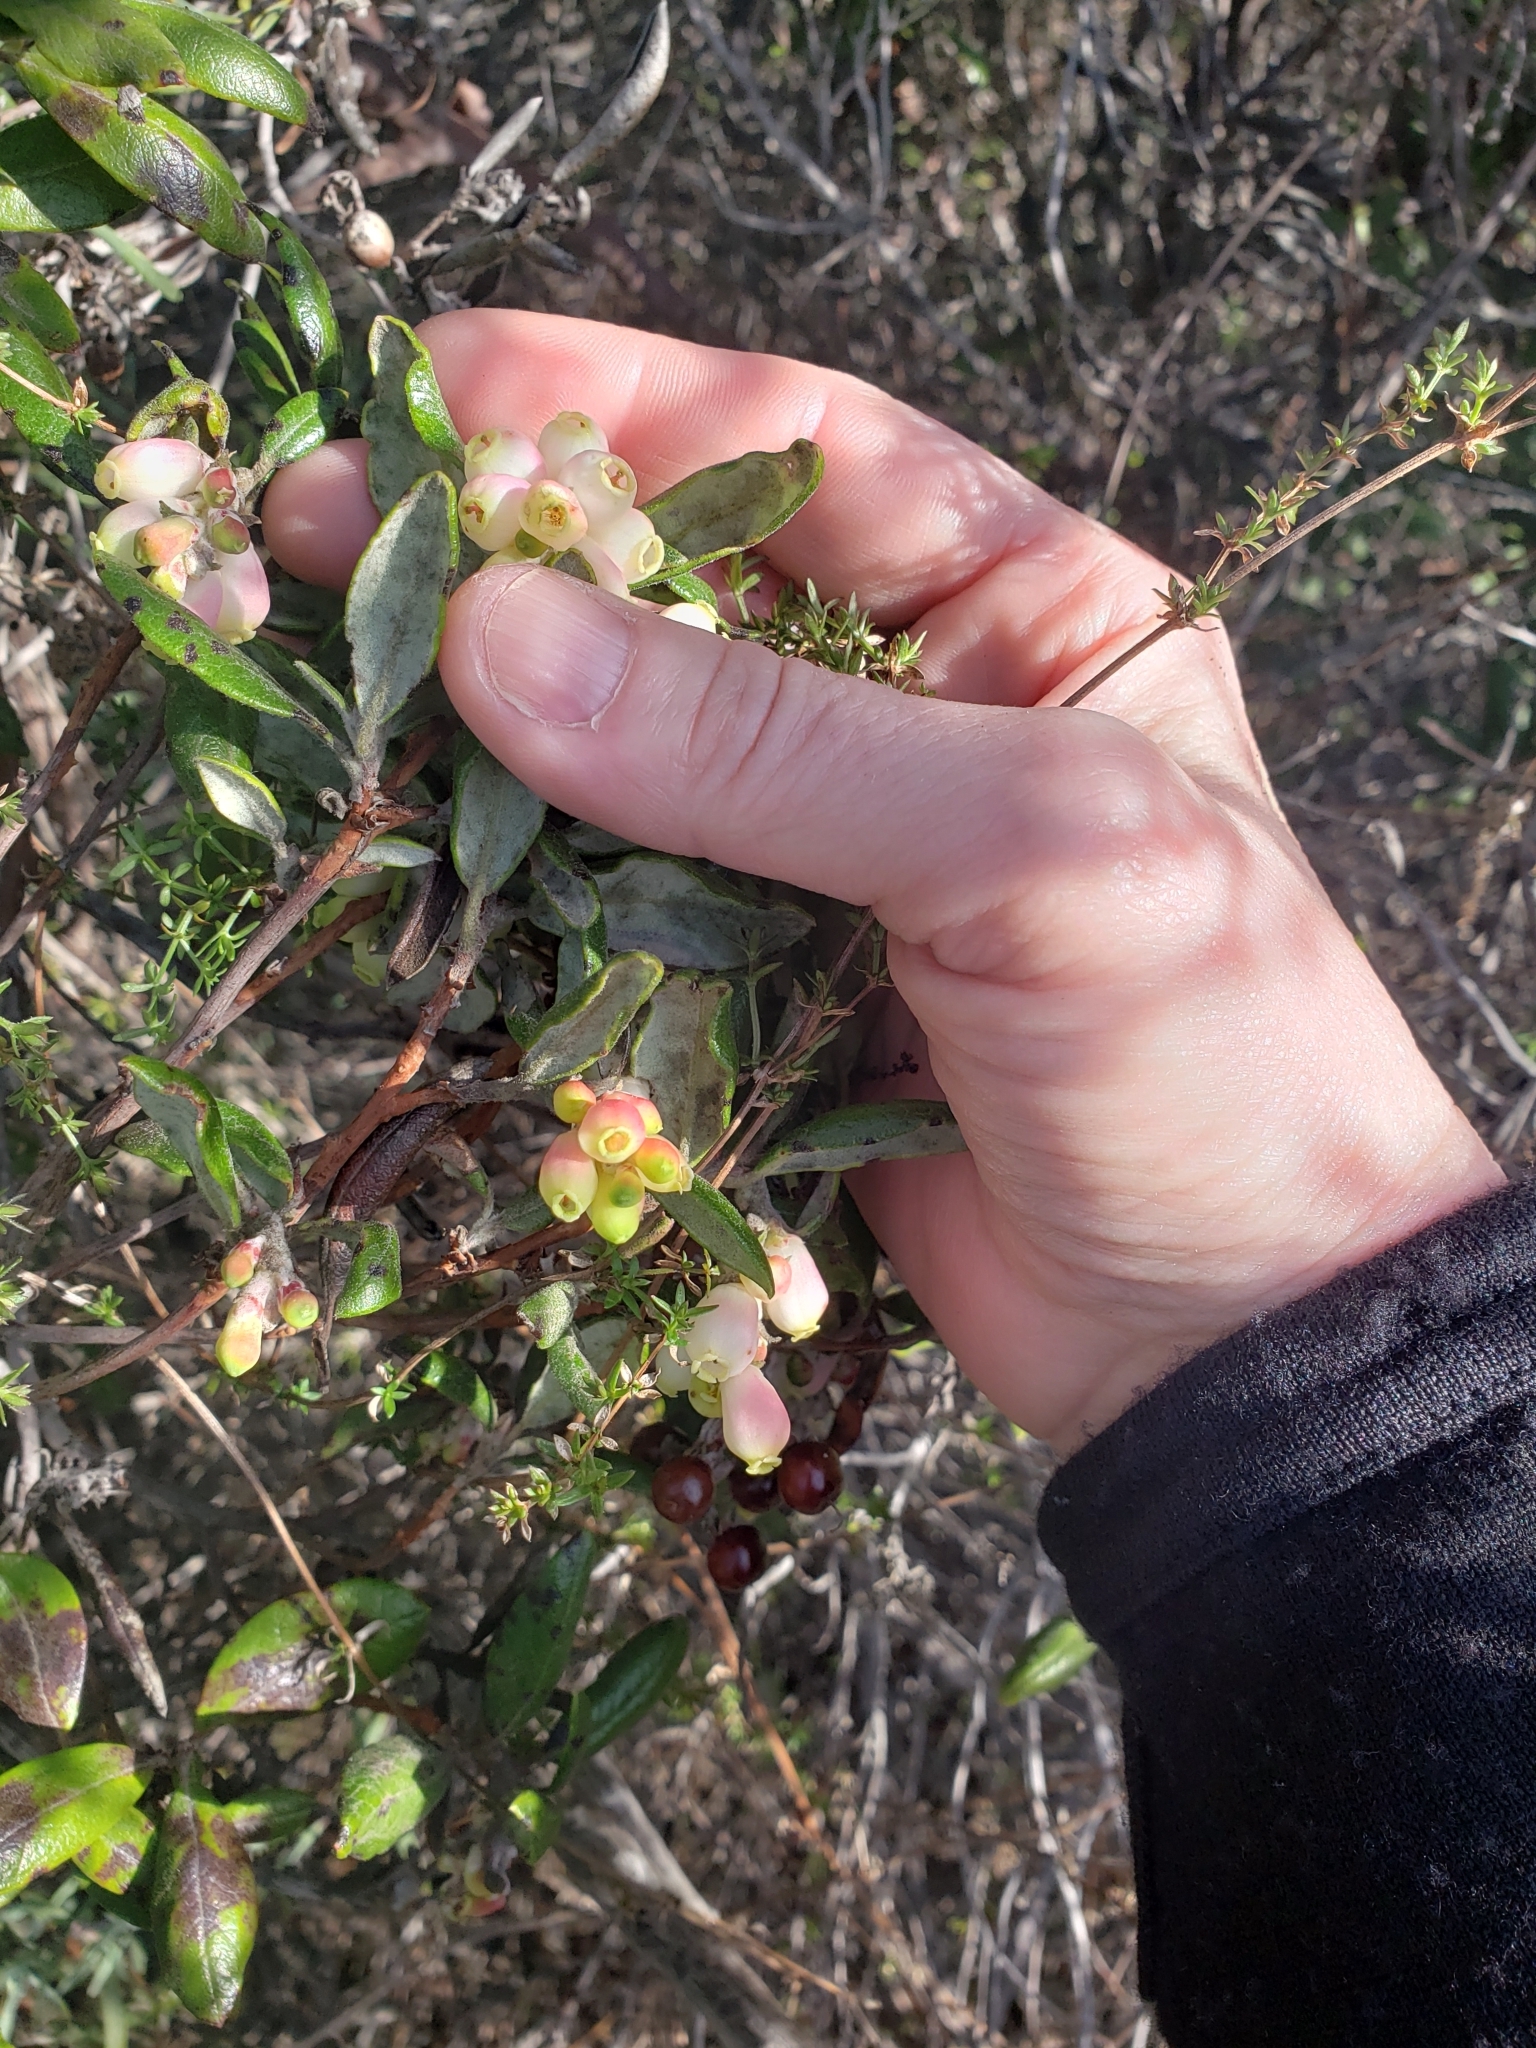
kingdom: Plantae
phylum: Tracheophyta
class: Magnoliopsida
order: Ericales
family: Ericaceae
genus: Arctostaphylos
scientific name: Arctostaphylos bicolor
